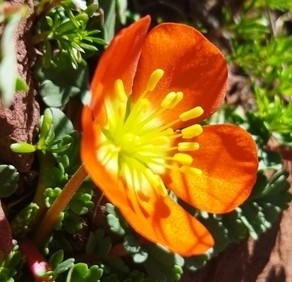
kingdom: Plantae
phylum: Tracheophyta
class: Magnoliopsida
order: Geraniales
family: Hypseocharitaceae
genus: Hypseocharis
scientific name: Hypseocharis pimpinellifolia
